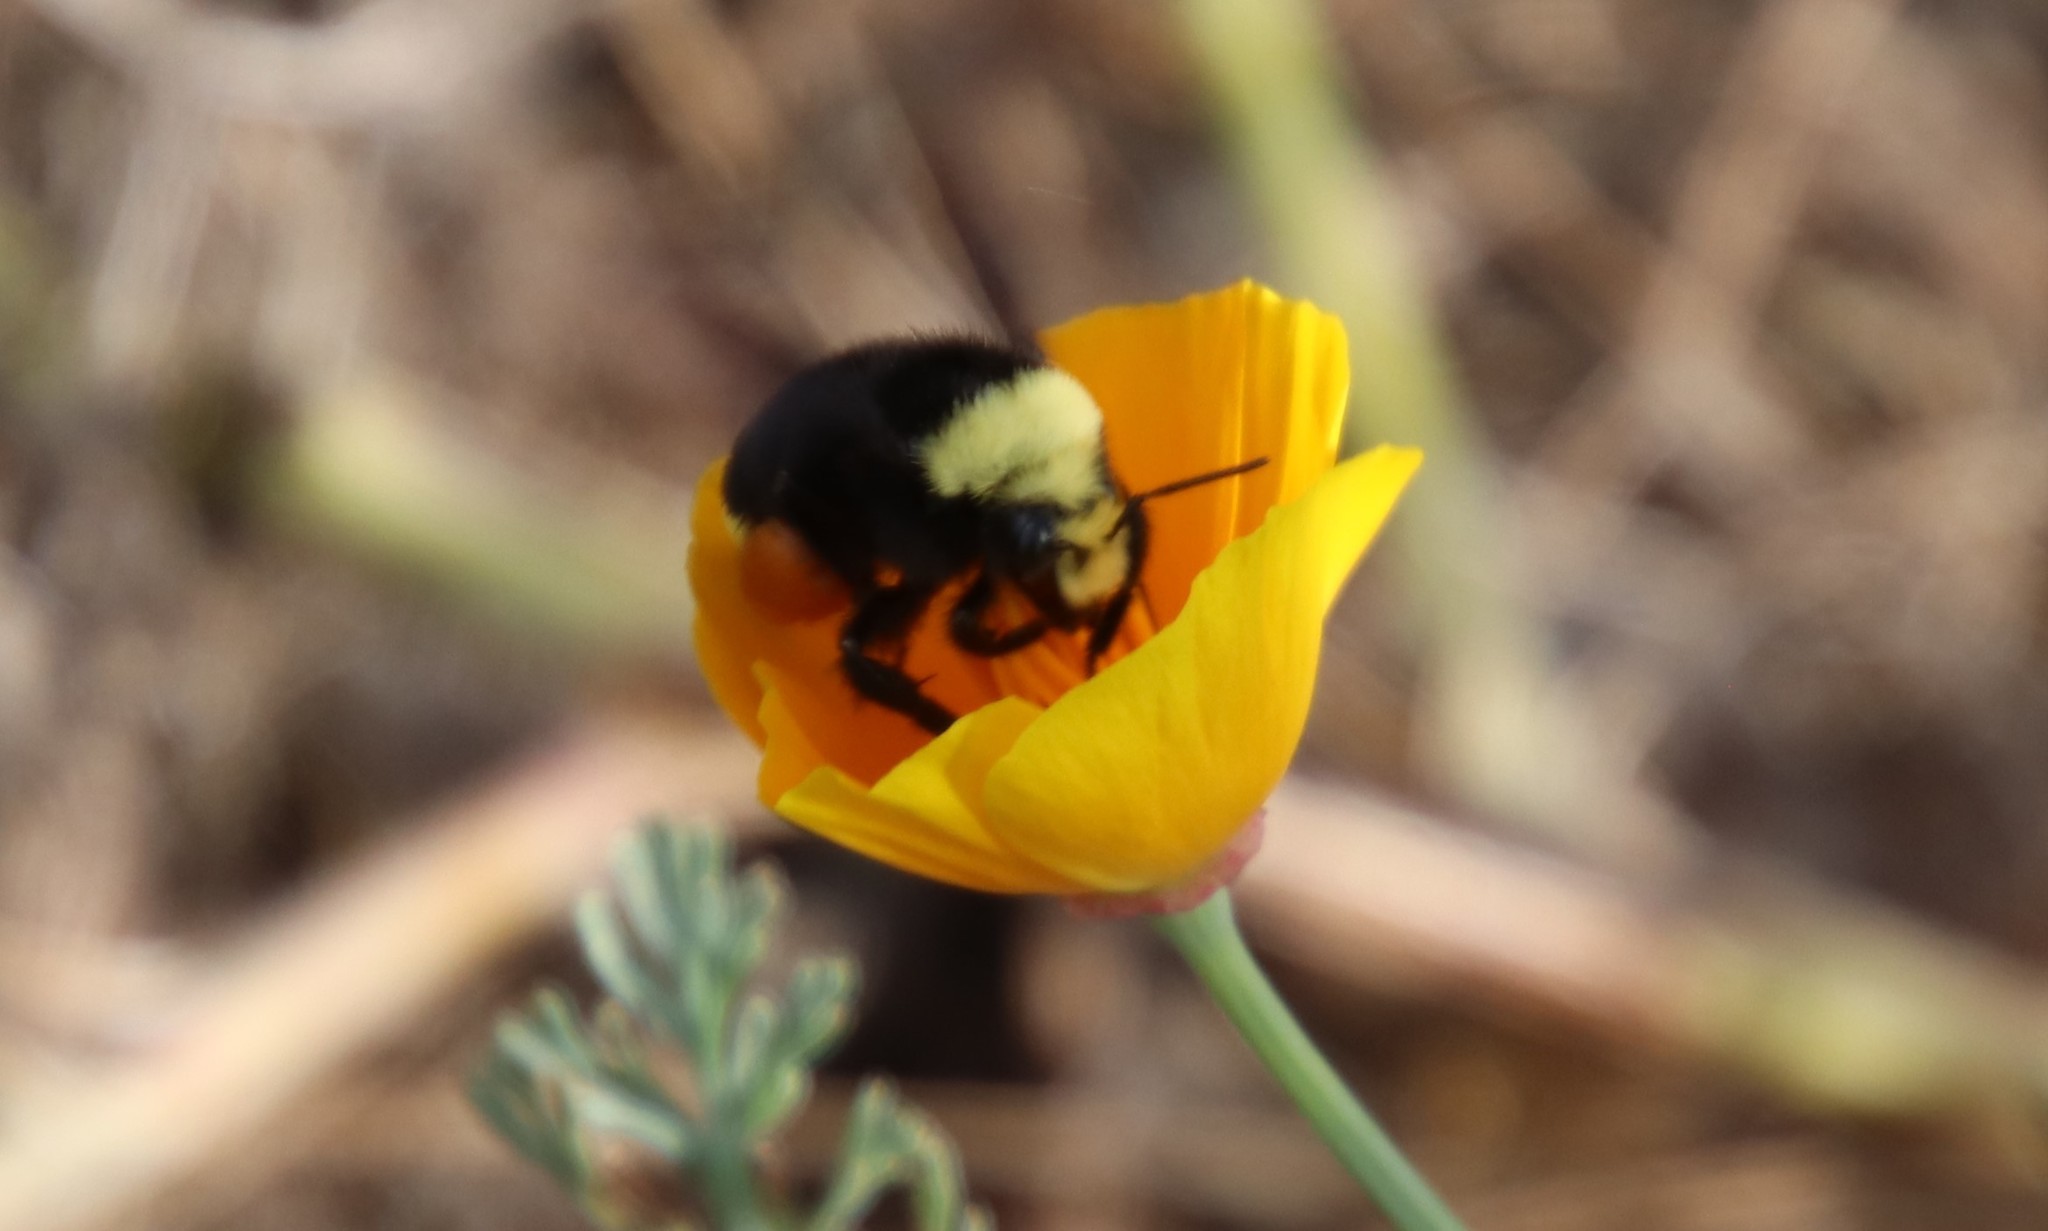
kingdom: Animalia
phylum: Arthropoda
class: Insecta
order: Hymenoptera
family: Apidae
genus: Bombus
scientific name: Bombus vosnesenskii
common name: Vosnesensky bumble bee
